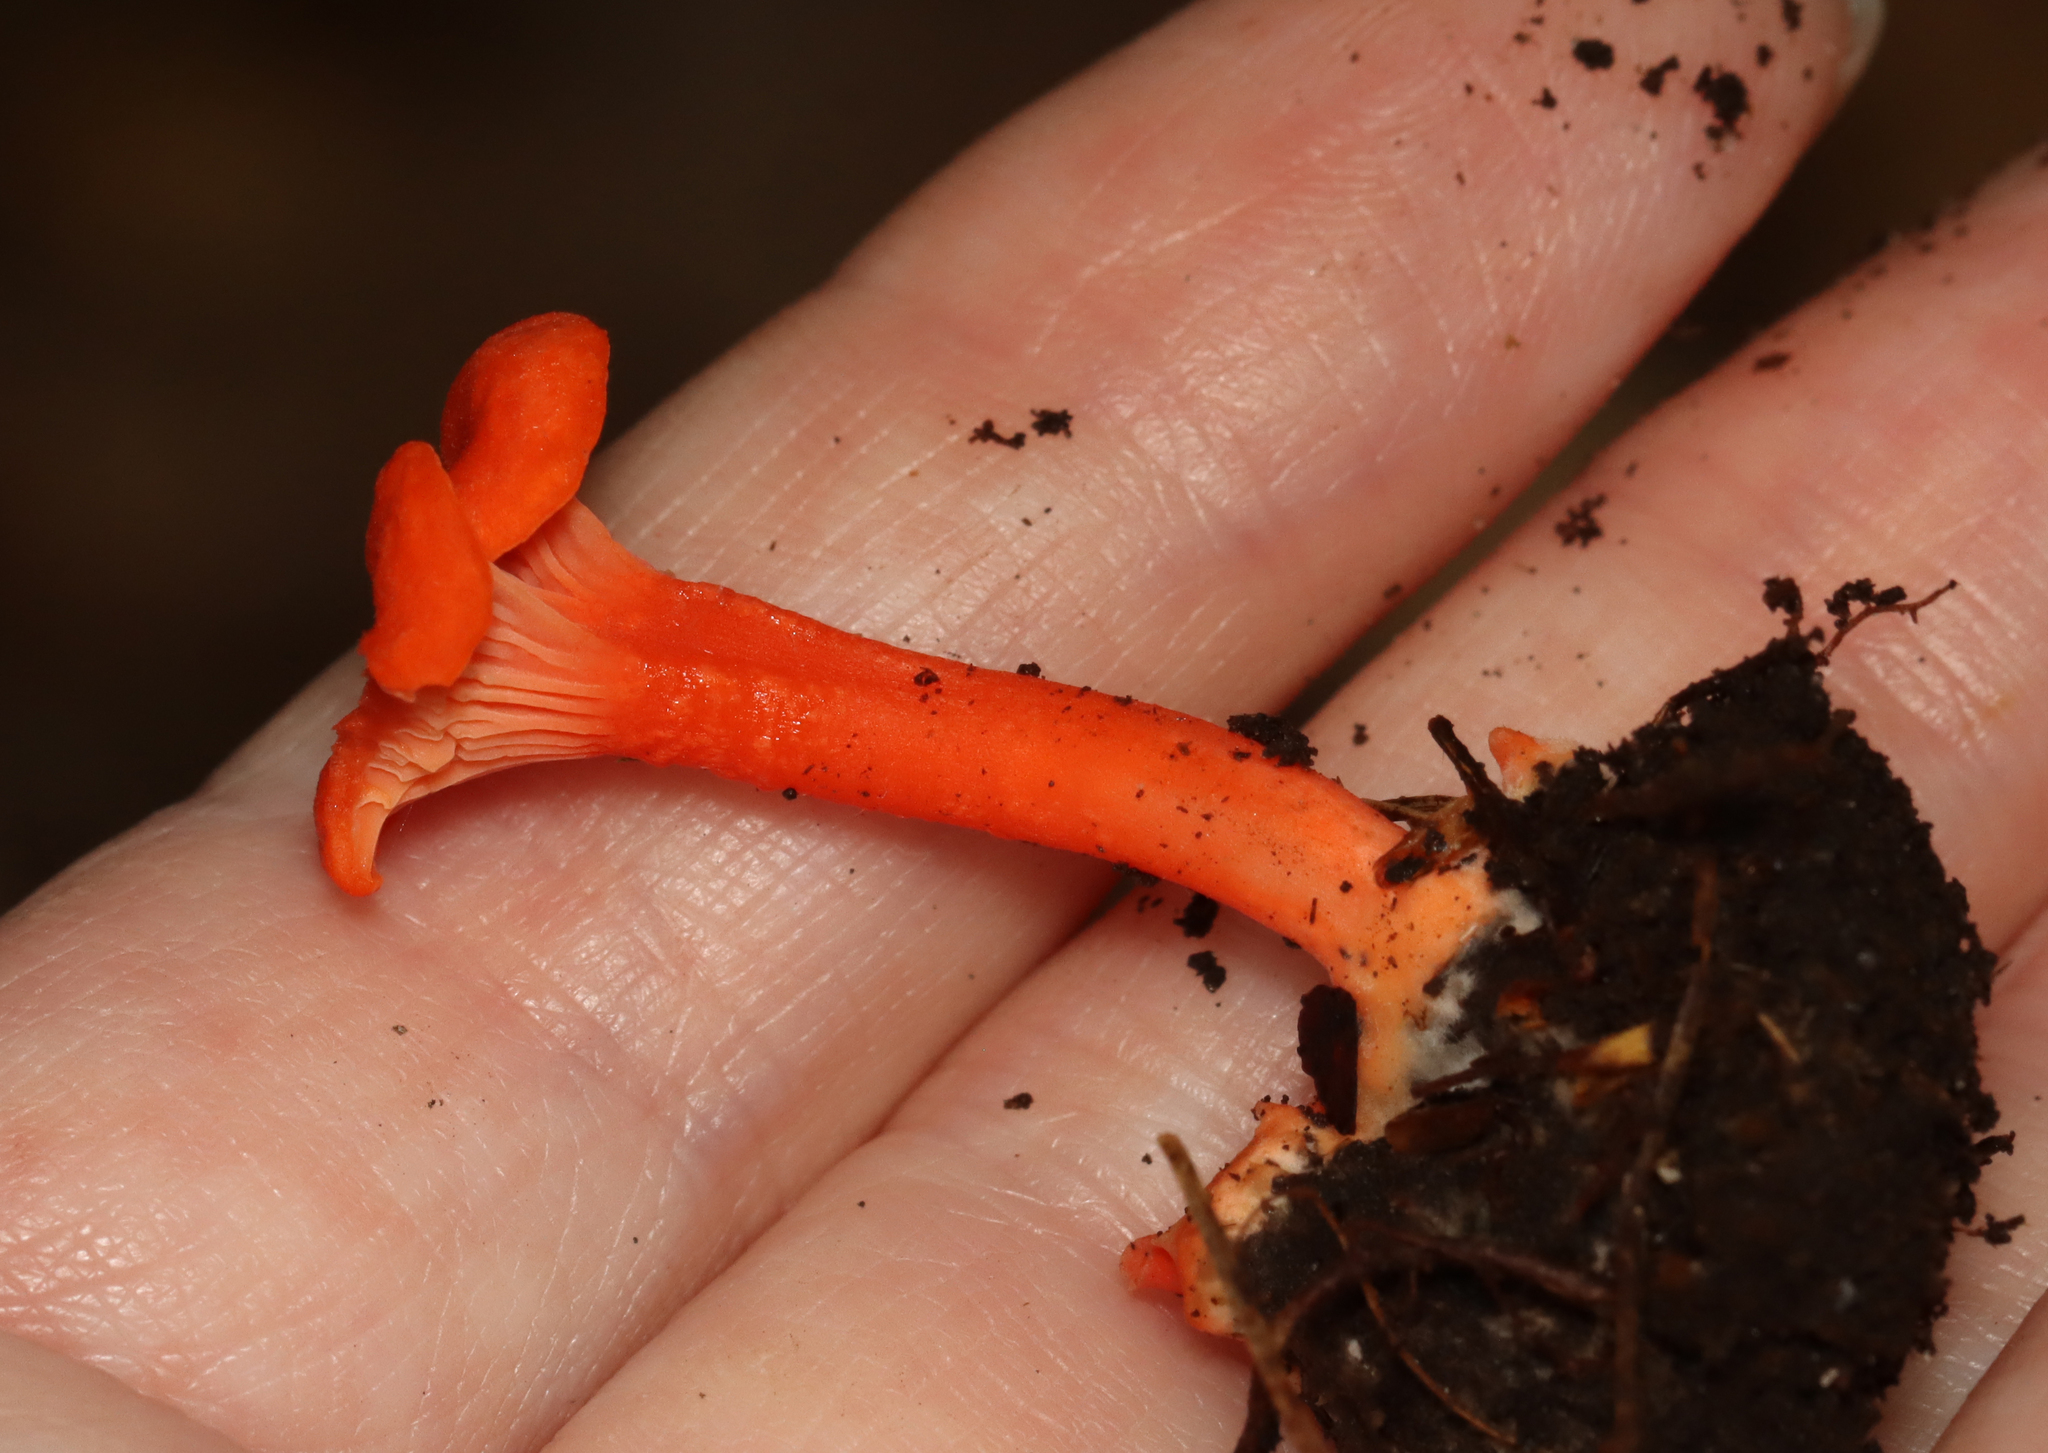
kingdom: Fungi
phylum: Basidiomycota
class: Agaricomycetes
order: Cantharellales
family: Hydnaceae
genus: Cantharellus
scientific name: Cantharellus cinnabarinus
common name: Cinnabar chanterelle
